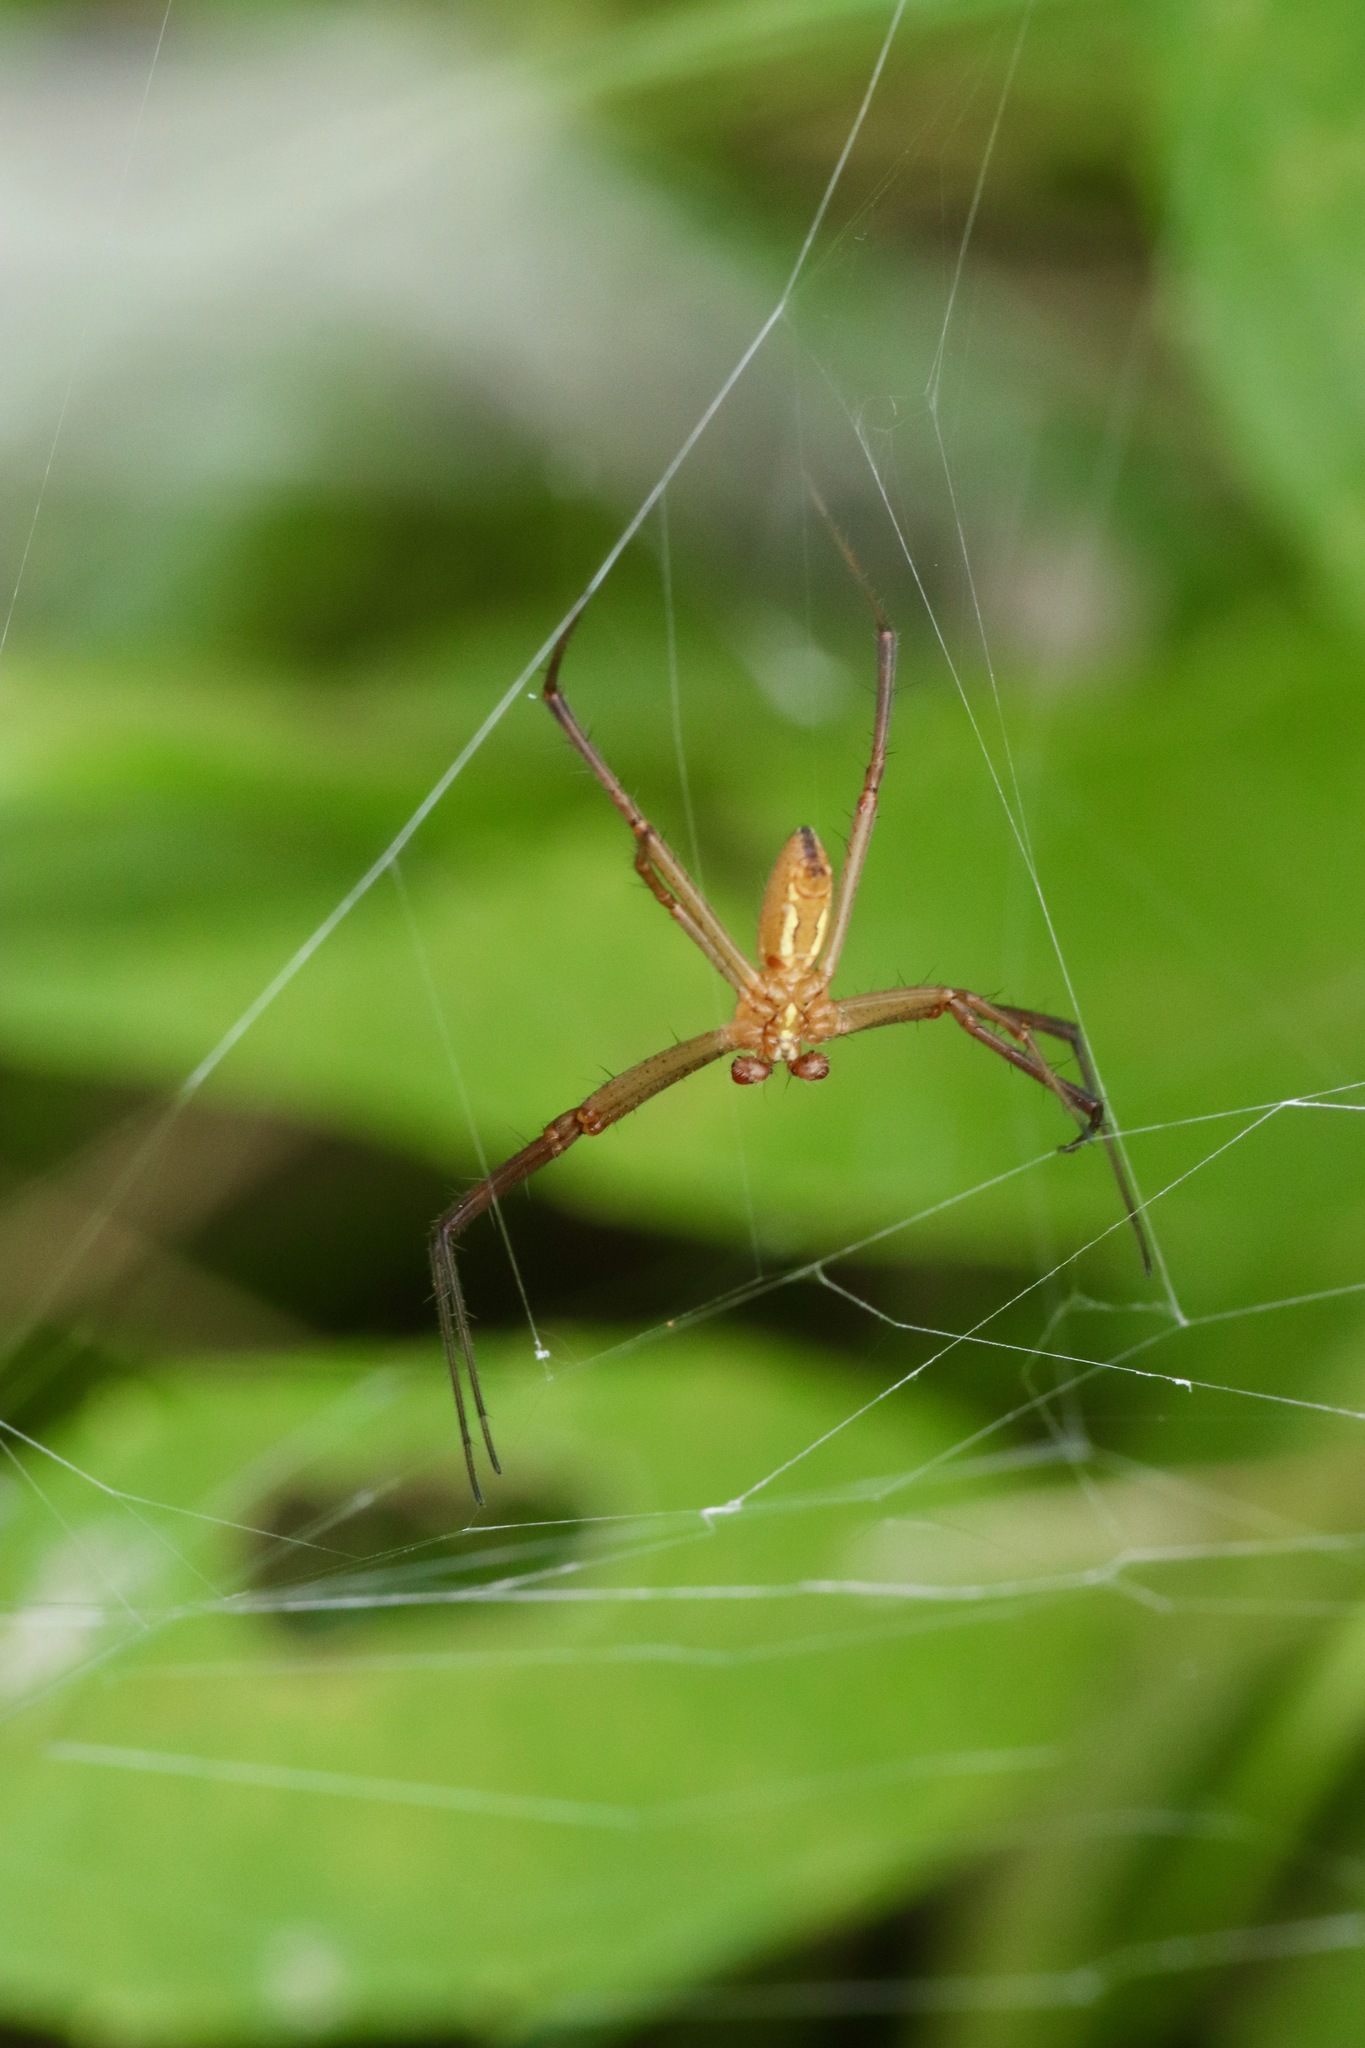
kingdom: Animalia
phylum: Arthropoda
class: Arachnida
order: Araneae
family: Araneidae
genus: Argiope
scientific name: Argiope trifasciata
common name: Banded garden spider
